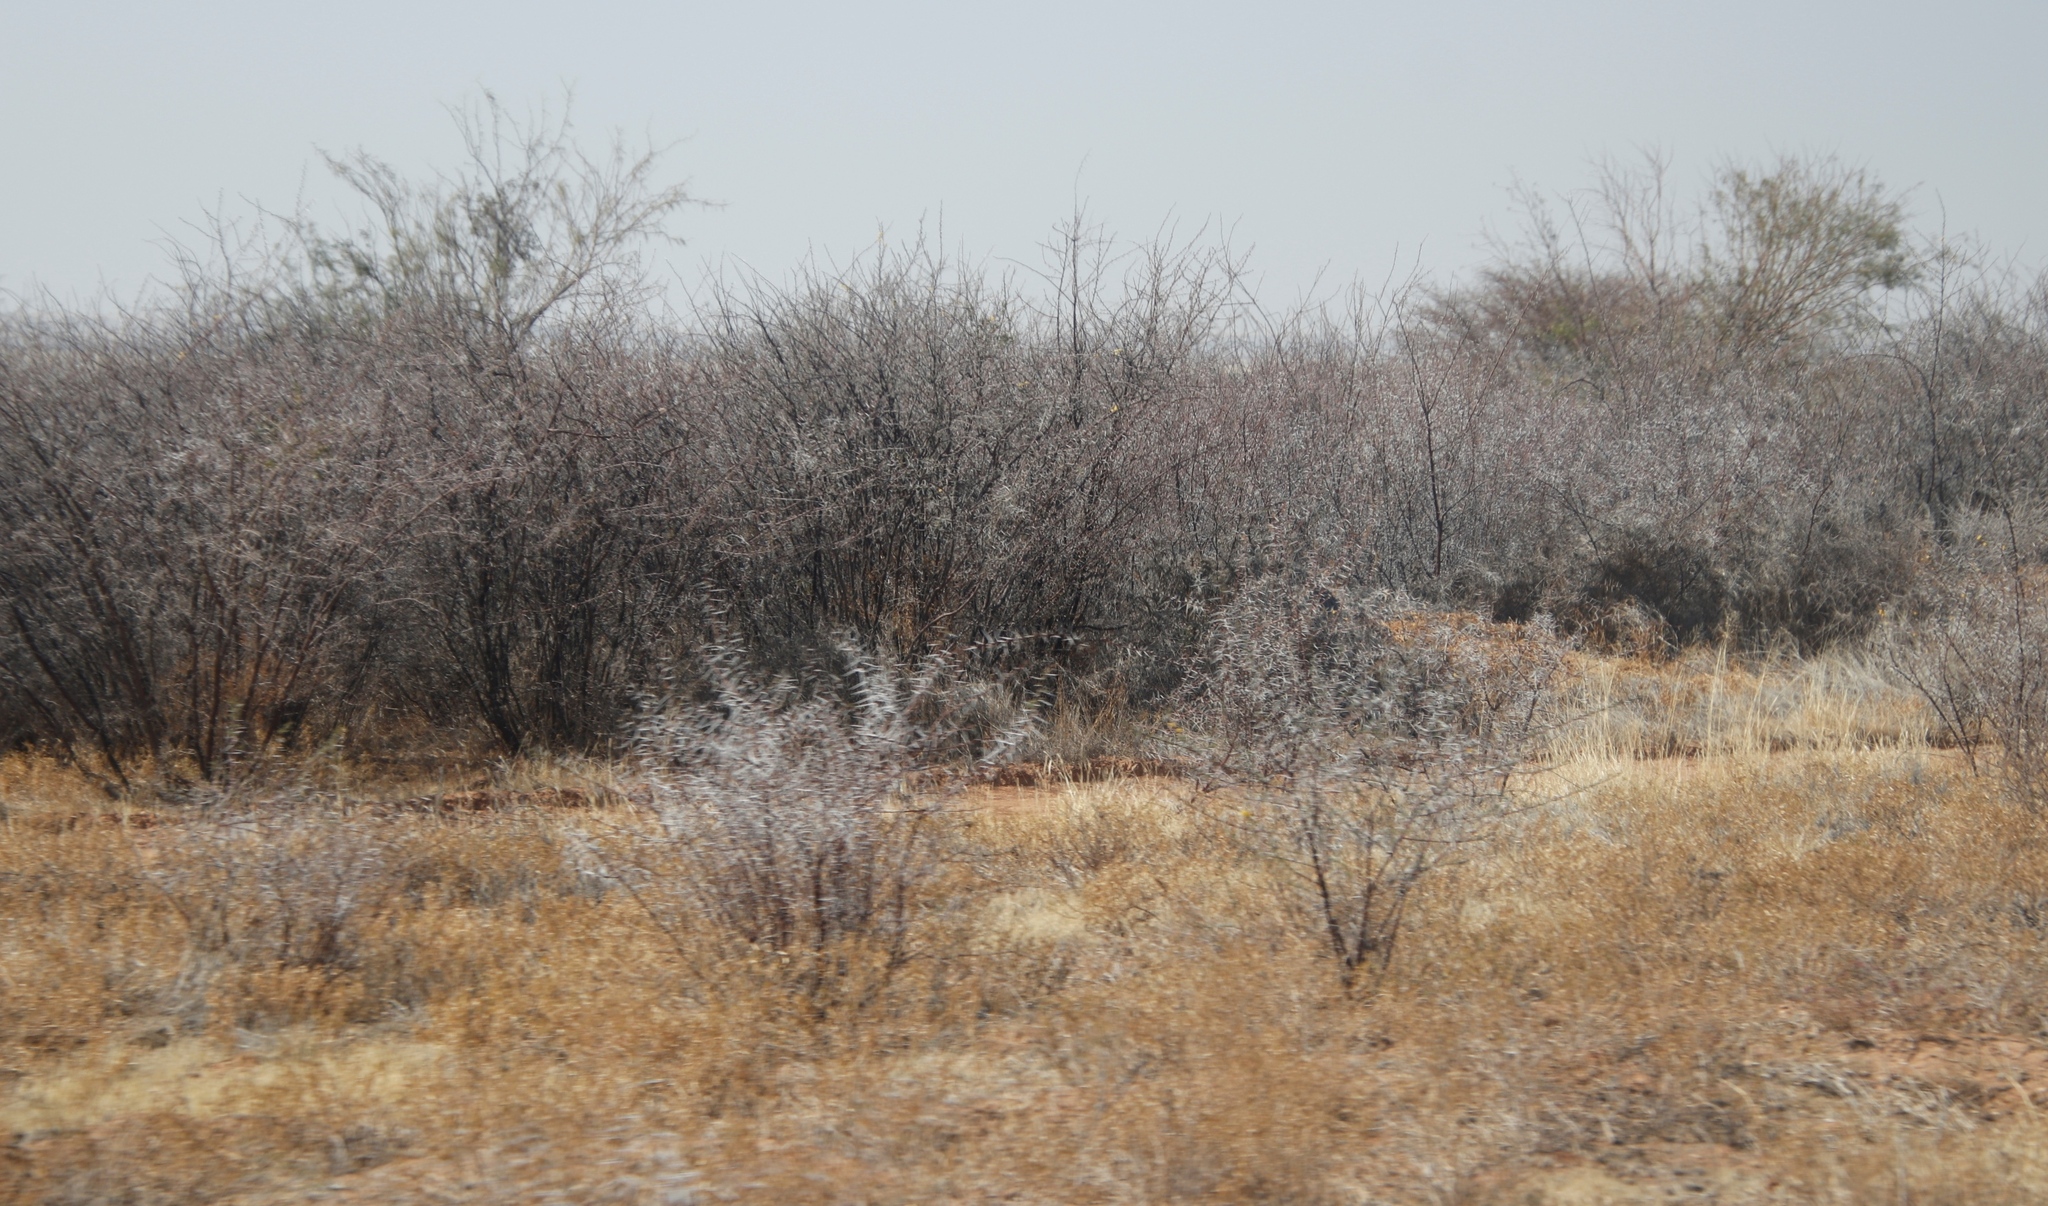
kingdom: Plantae
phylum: Tracheophyta
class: Magnoliopsida
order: Fabales
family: Fabaceae
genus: Vachellia
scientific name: Vachellia nebrownii
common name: Water acacia
